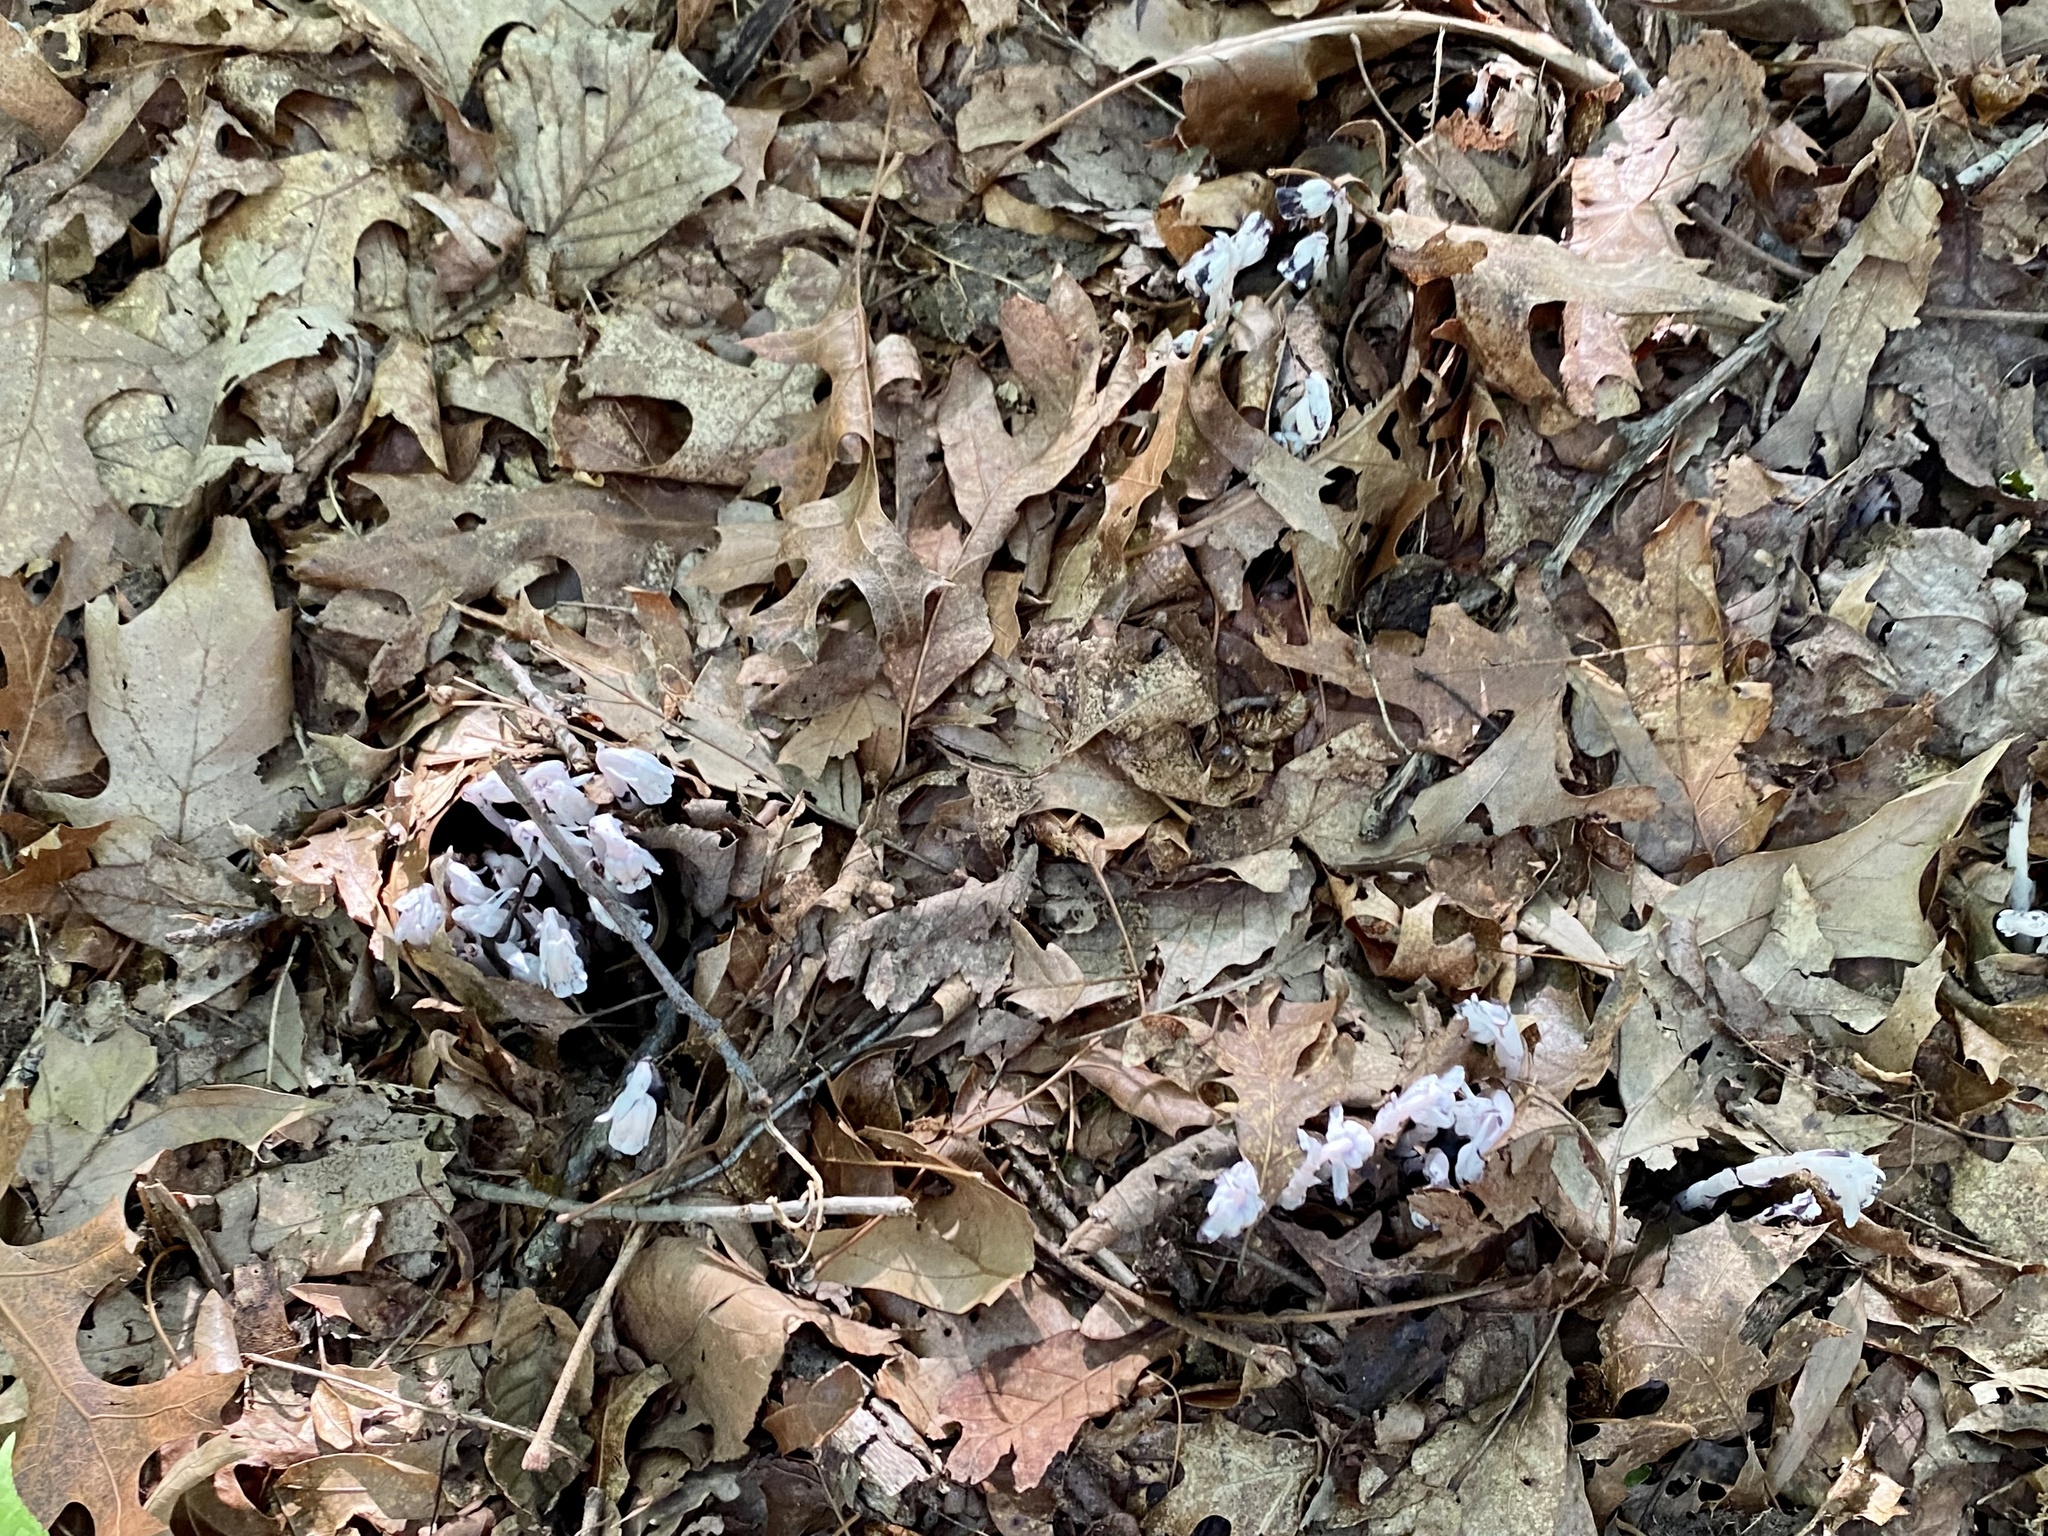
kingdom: Plantae
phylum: Tracheophyta
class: Magnoliopsida
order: Ericales
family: Ericaceae
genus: Monotropa
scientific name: Monotropa uniflora
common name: Convulsion root
